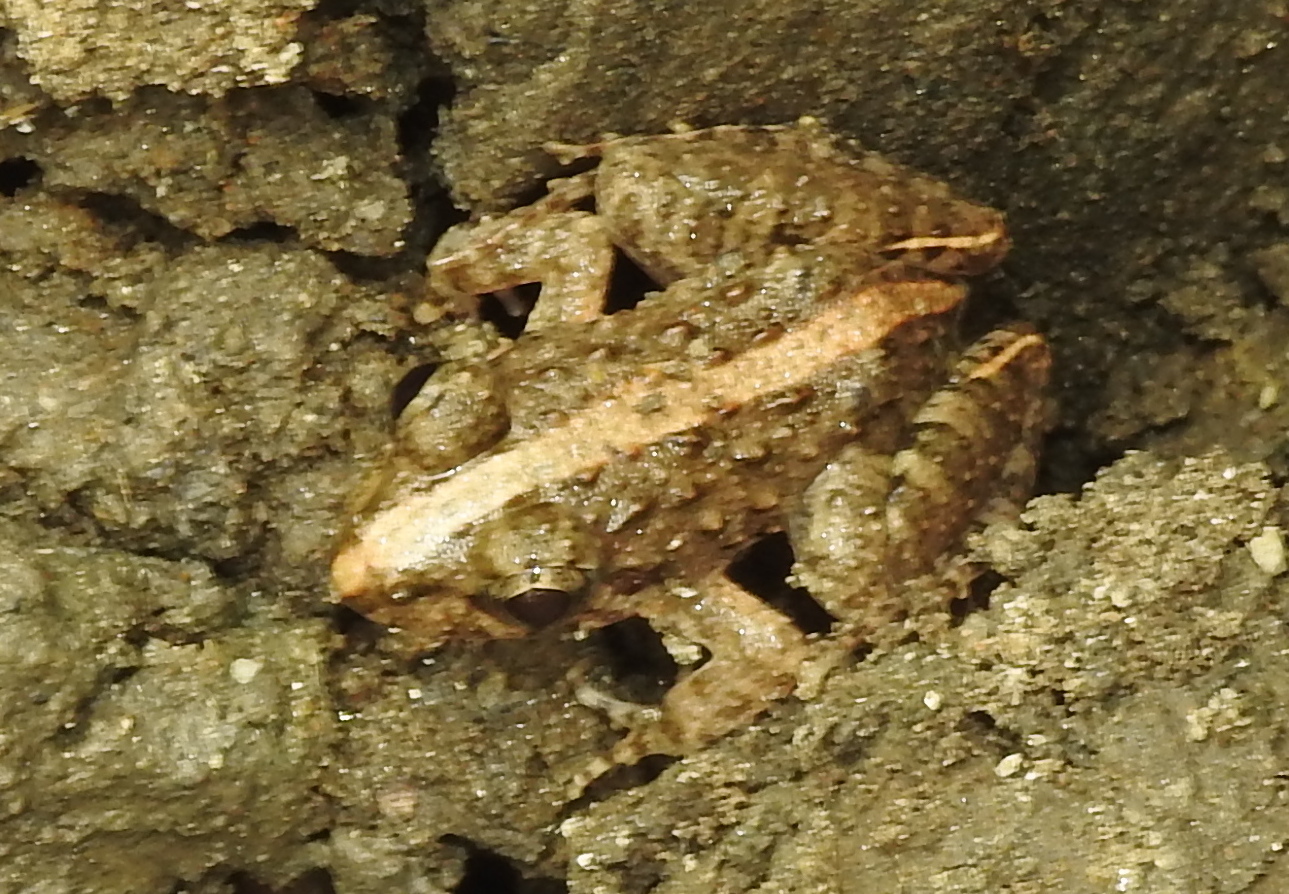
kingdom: Animalia
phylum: Chordata
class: Amphibia
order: Anura
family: Dicroglossidae
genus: Minervarya
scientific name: Minervarya agricola
